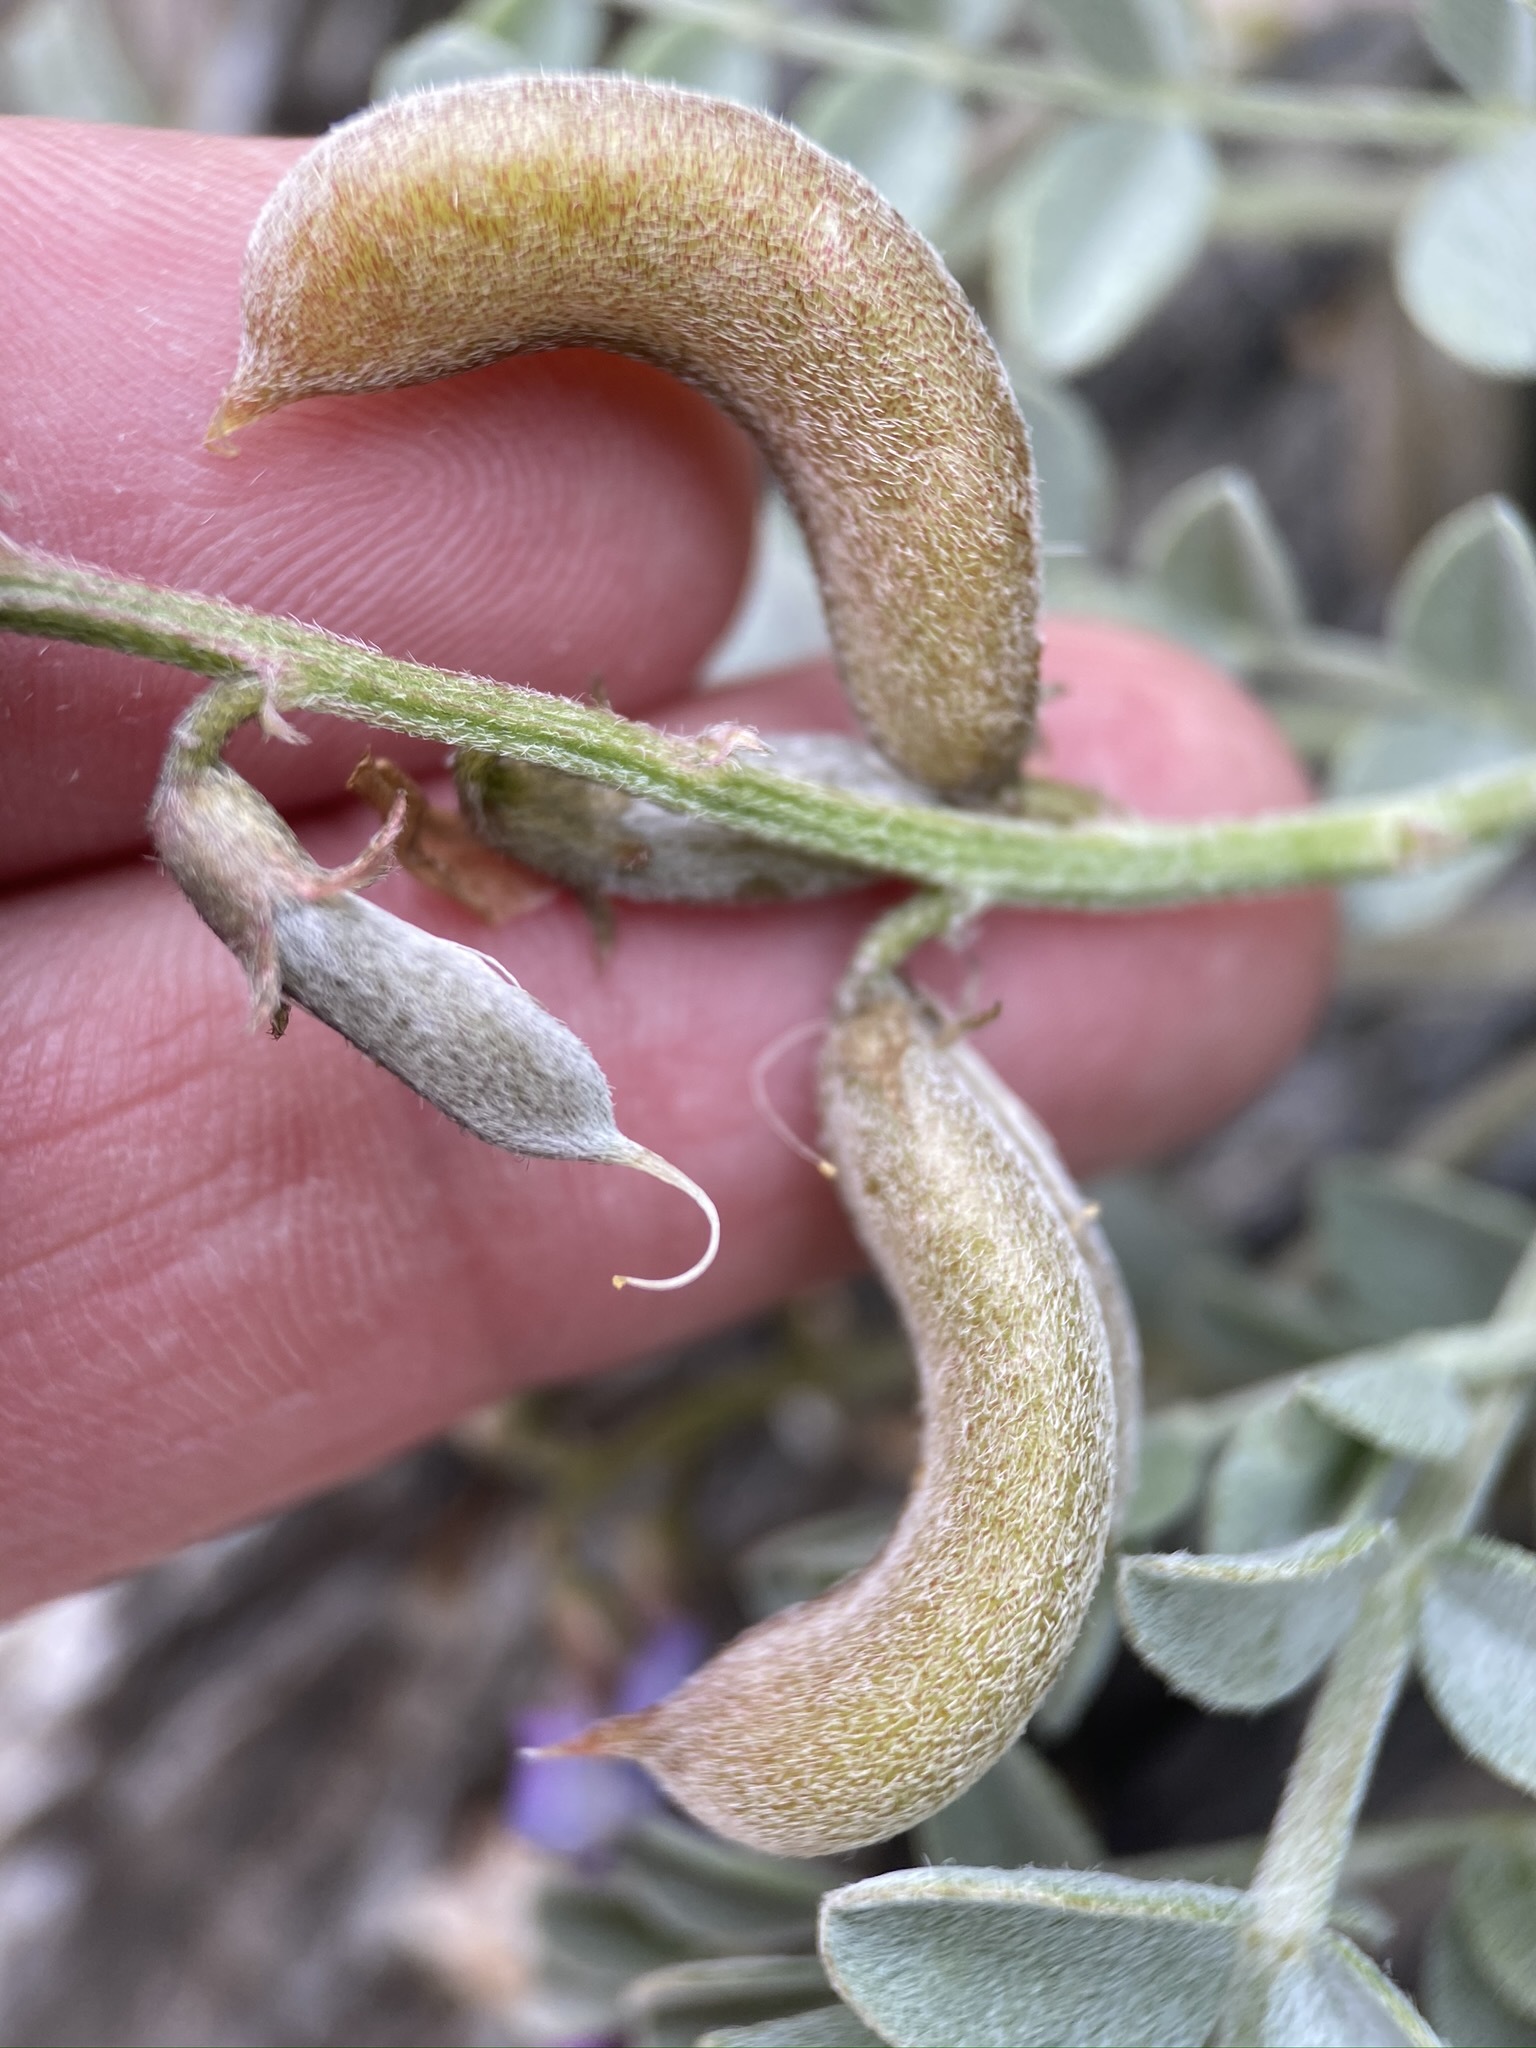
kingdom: Plantae
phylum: Tracheophyta
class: Magnoliopsida
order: Fabales
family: Fabaceae
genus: Astragalus
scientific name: Astragalus mohavensis
